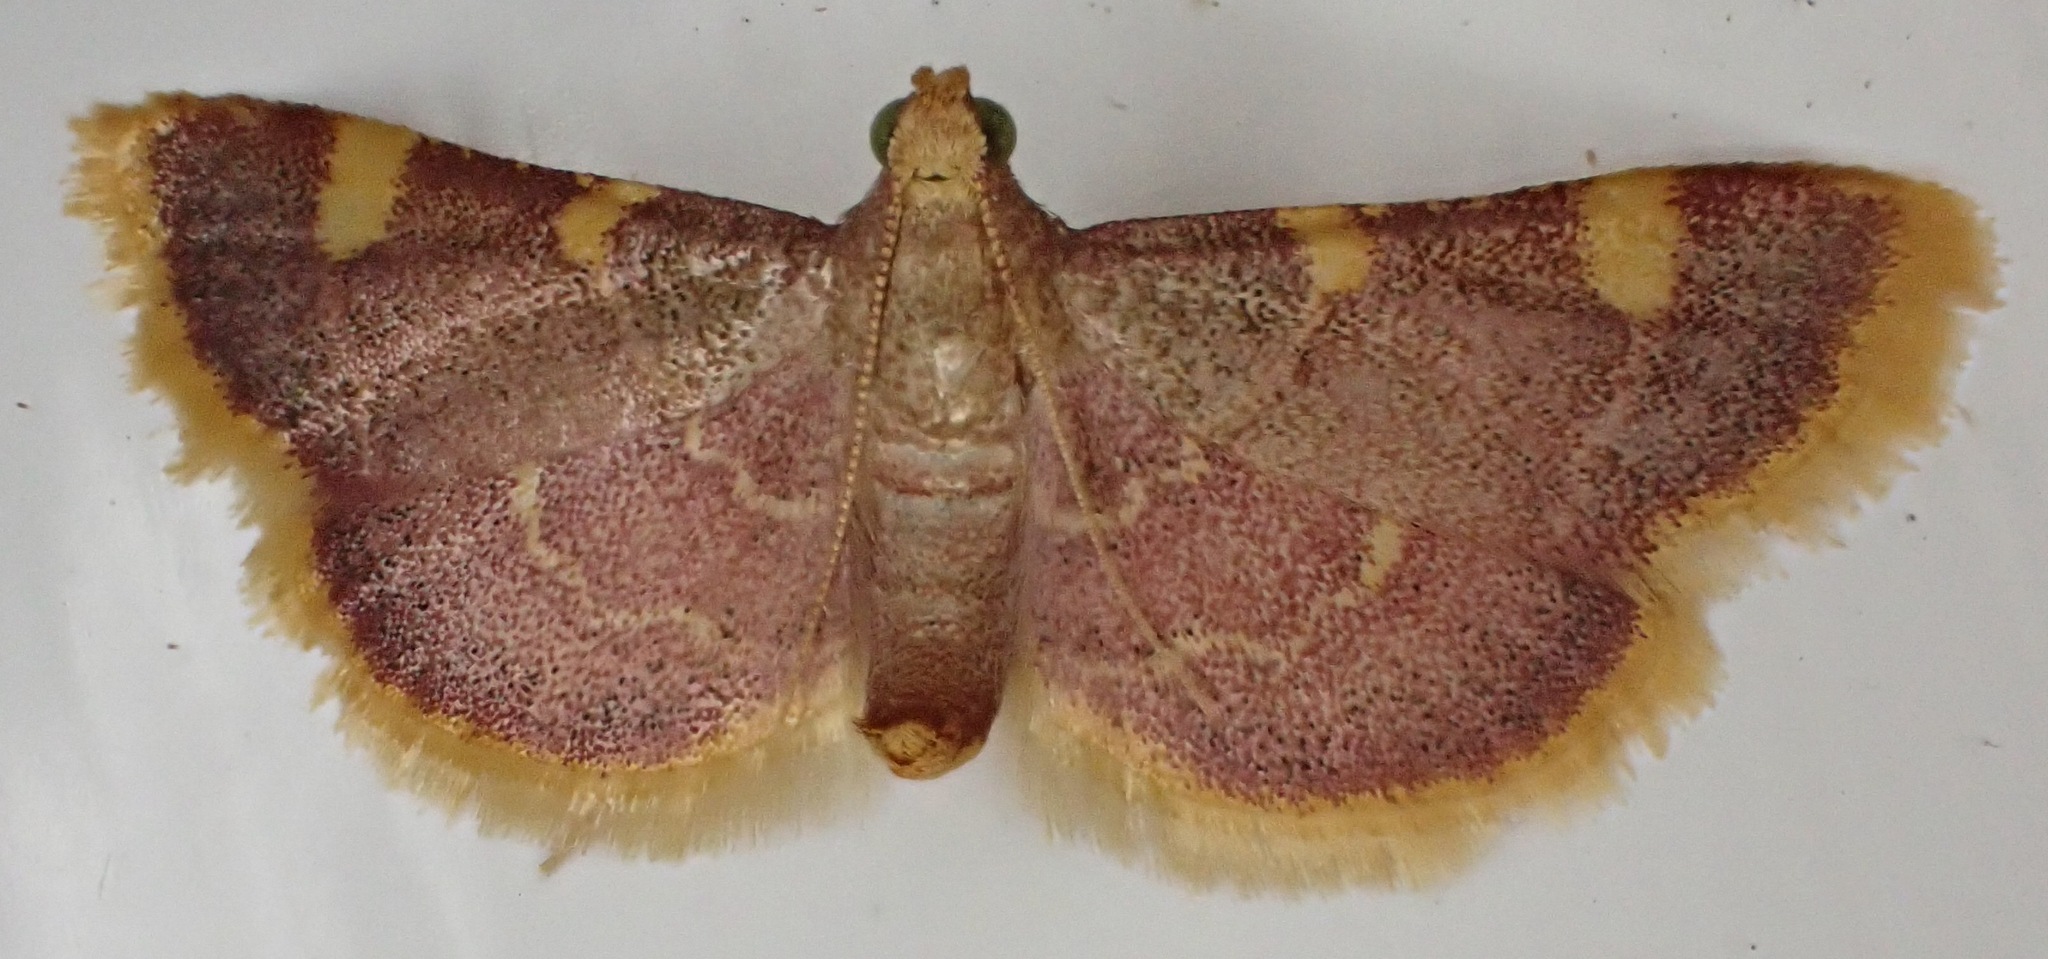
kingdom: Animalia
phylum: Arthropoda
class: Insecta
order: Lepidoptera
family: Pyralidae
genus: Hypsopygia
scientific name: Hypsopygia costalis
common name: Gold triangle
